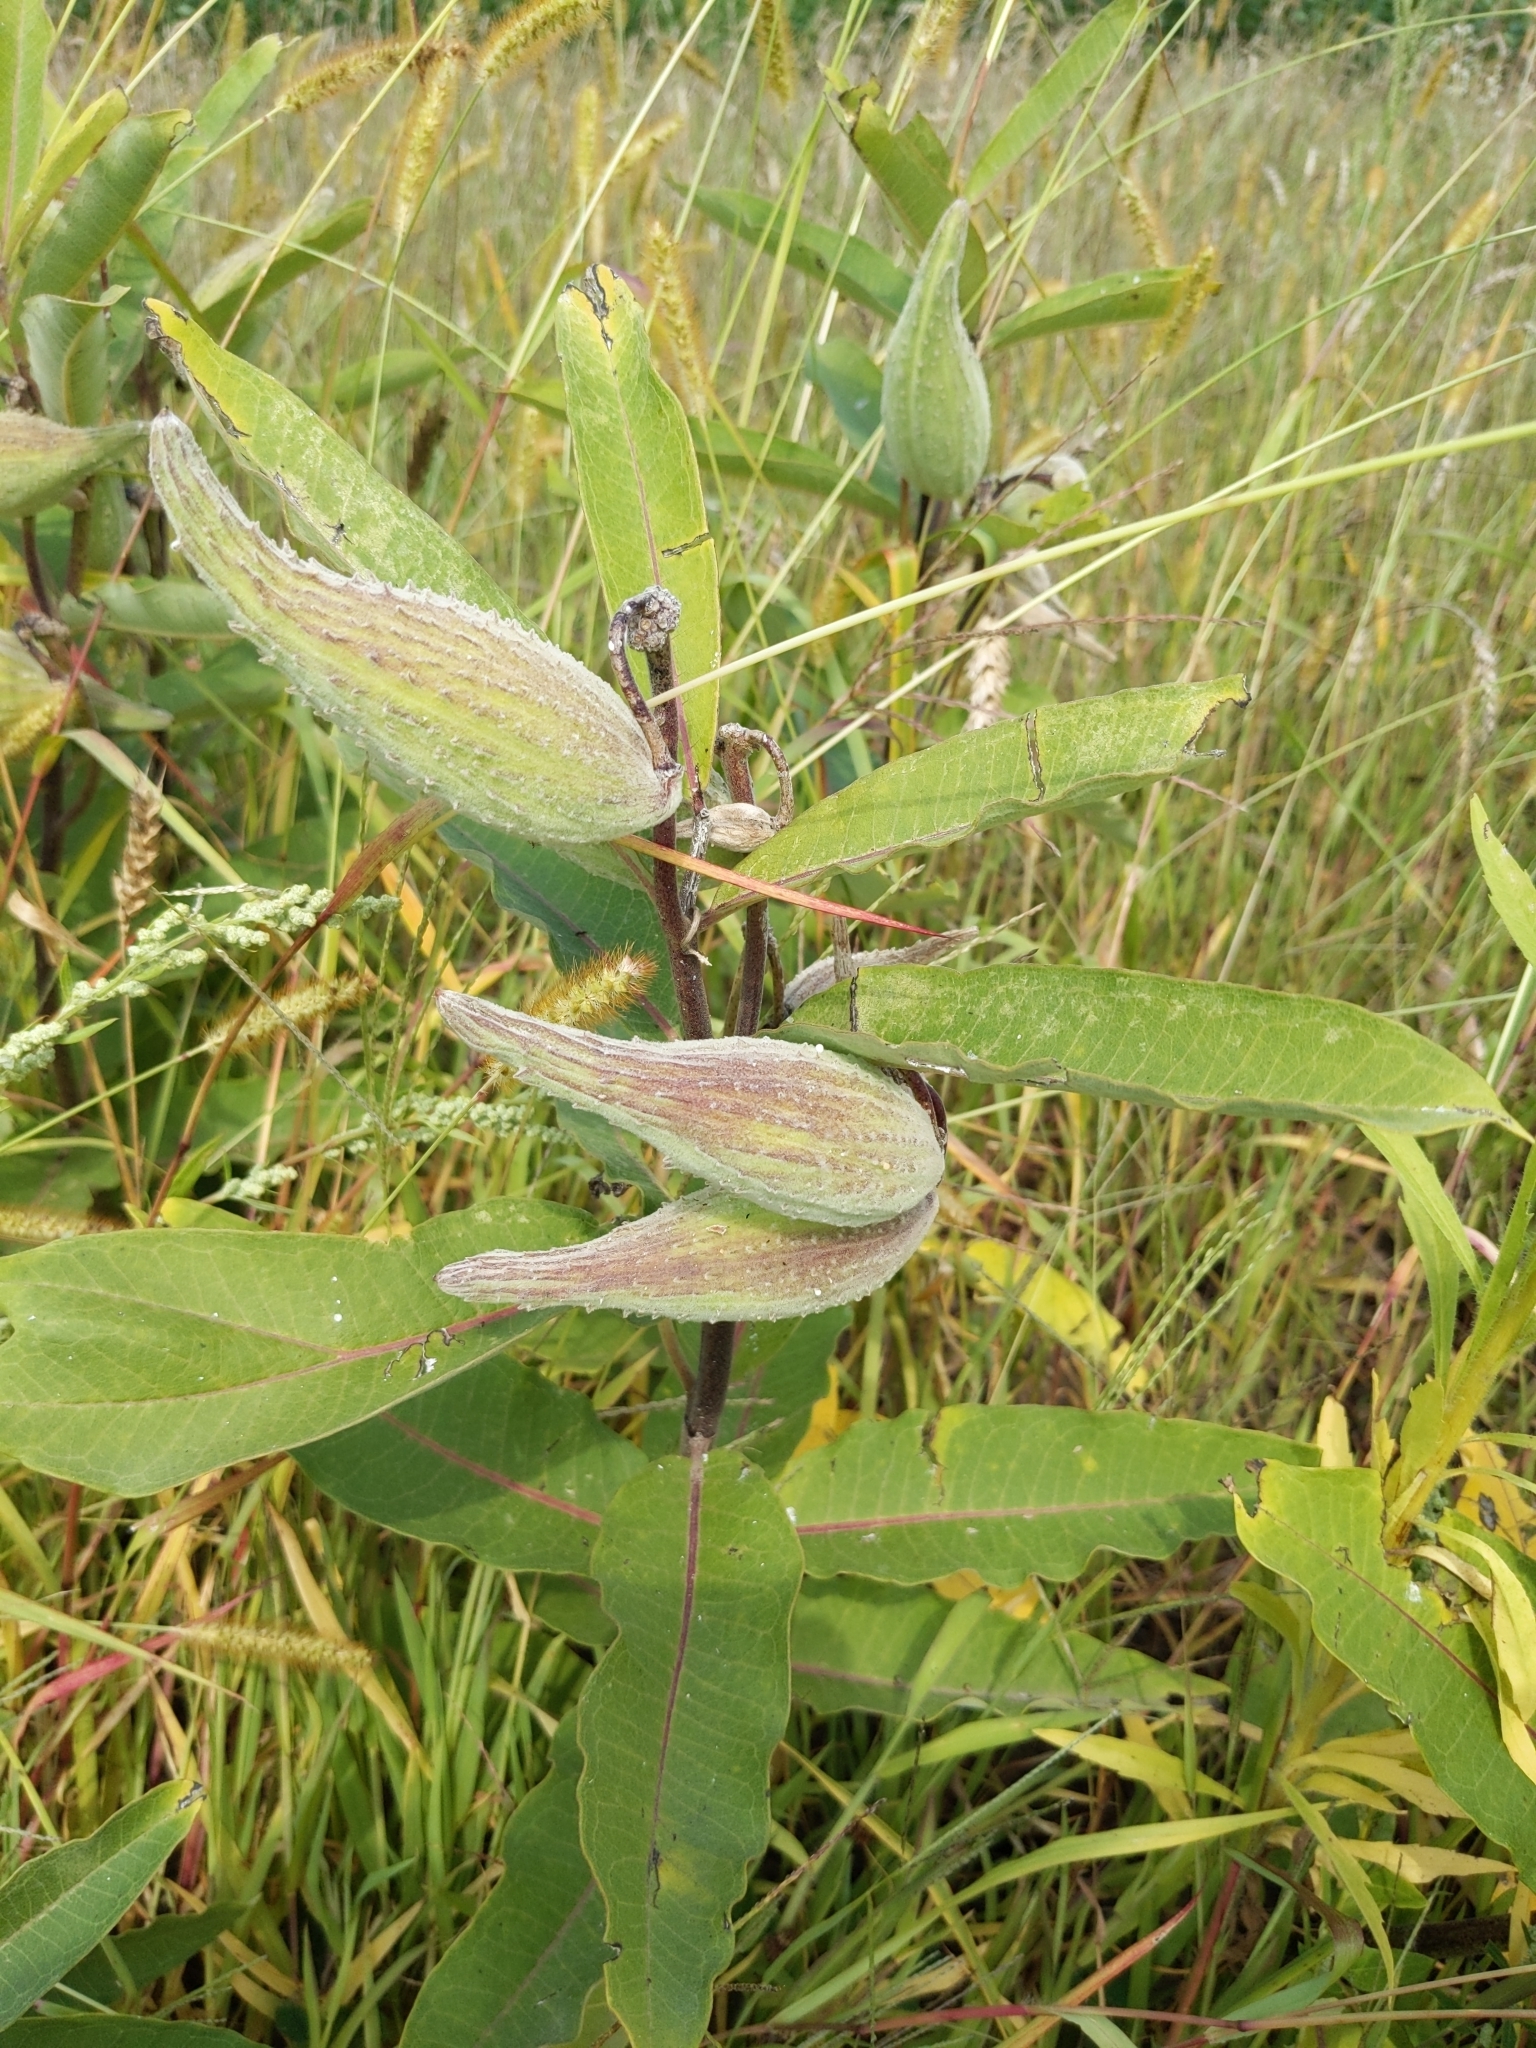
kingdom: Plantae
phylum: Tracheophyta
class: Magnoliopsida
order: Gentianales
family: Apocynaceae
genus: Asclepias
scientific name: Asclepias syriaca
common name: Common milkweed
